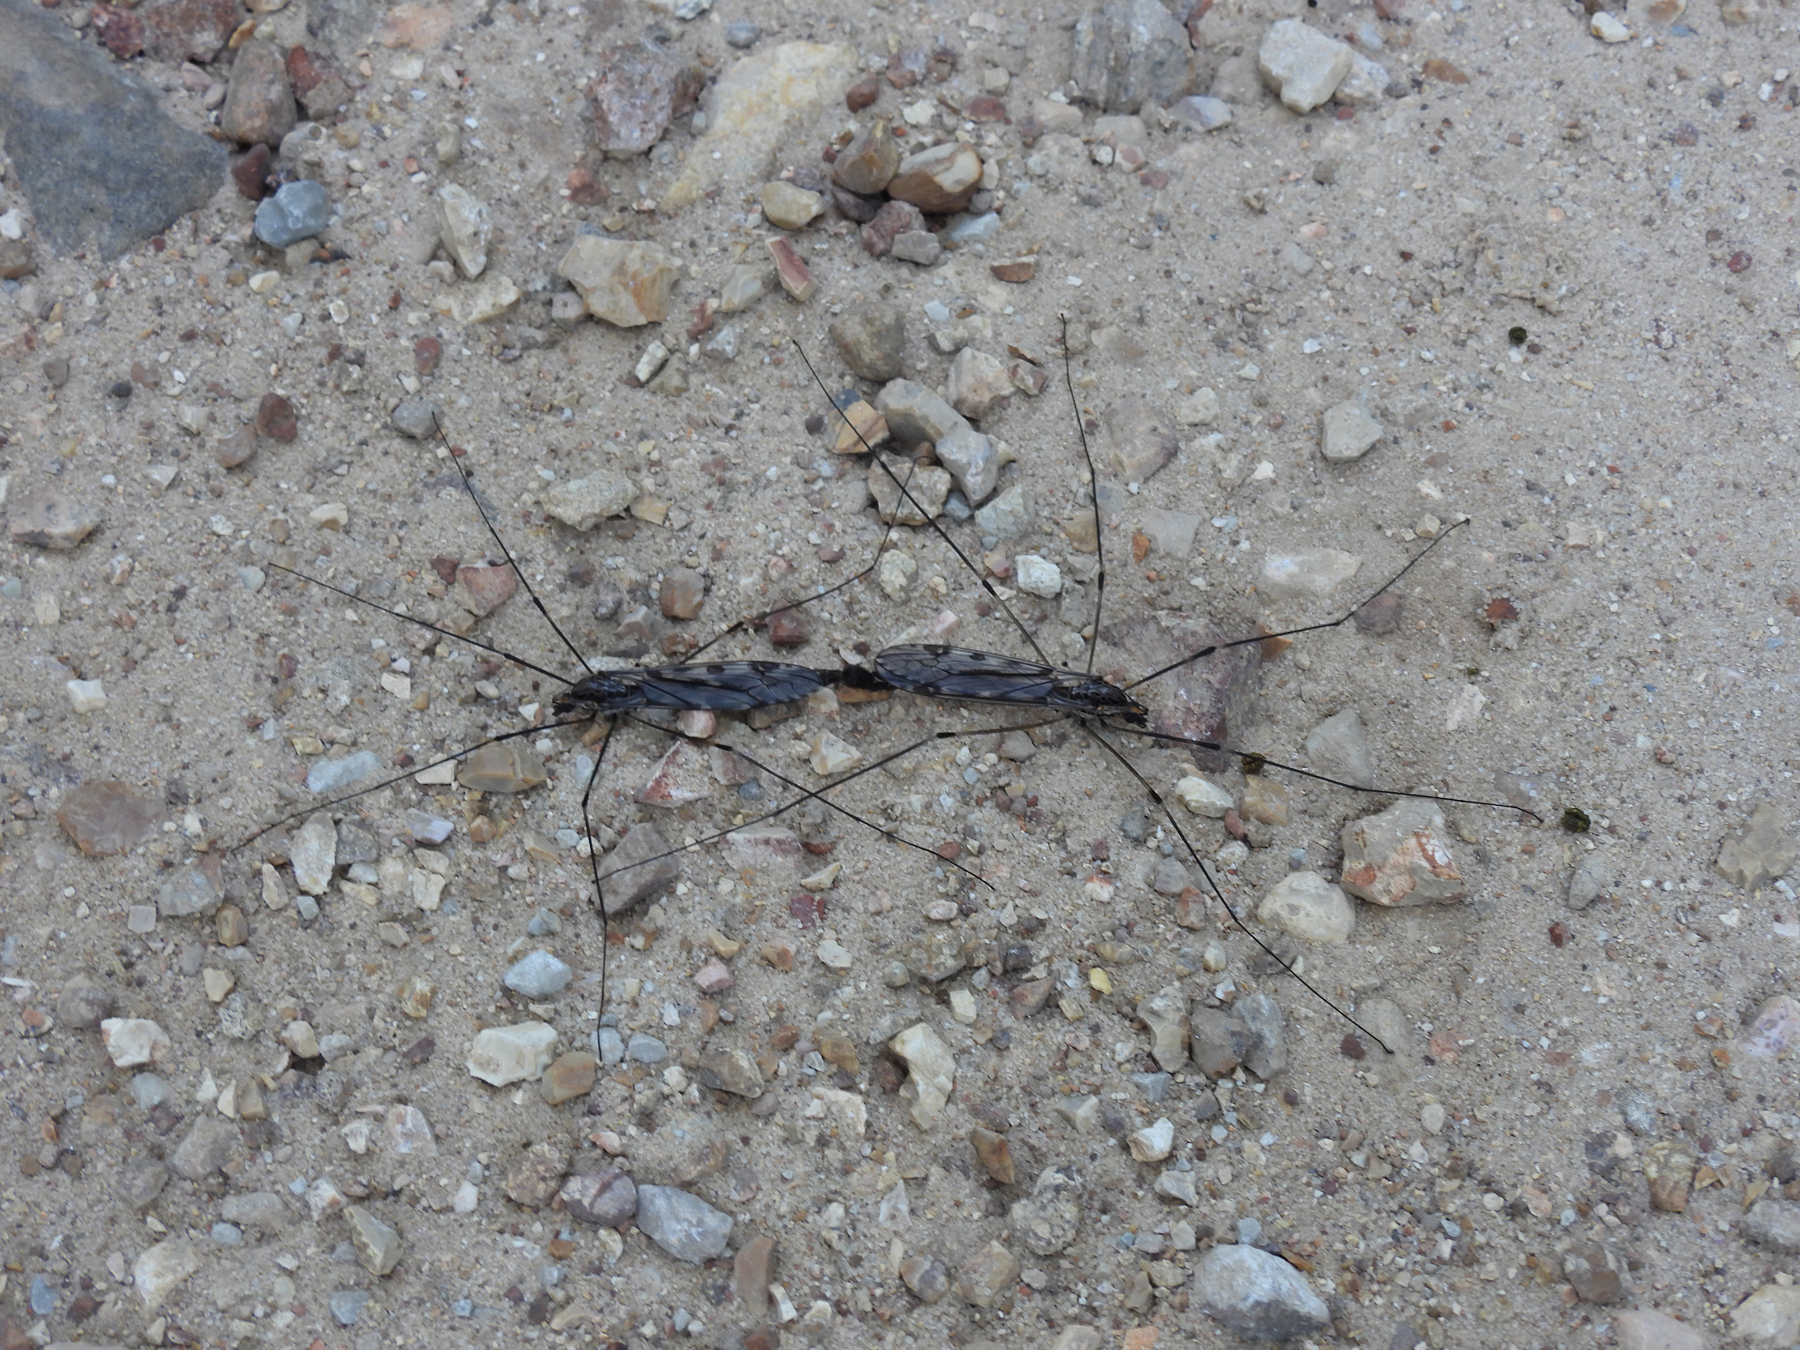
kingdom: Animalia
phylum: Arthropoda
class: Insecta
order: Diptera
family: Tipulidae
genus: Tipula
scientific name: Tipula abdominalis
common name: Giant crane fly
